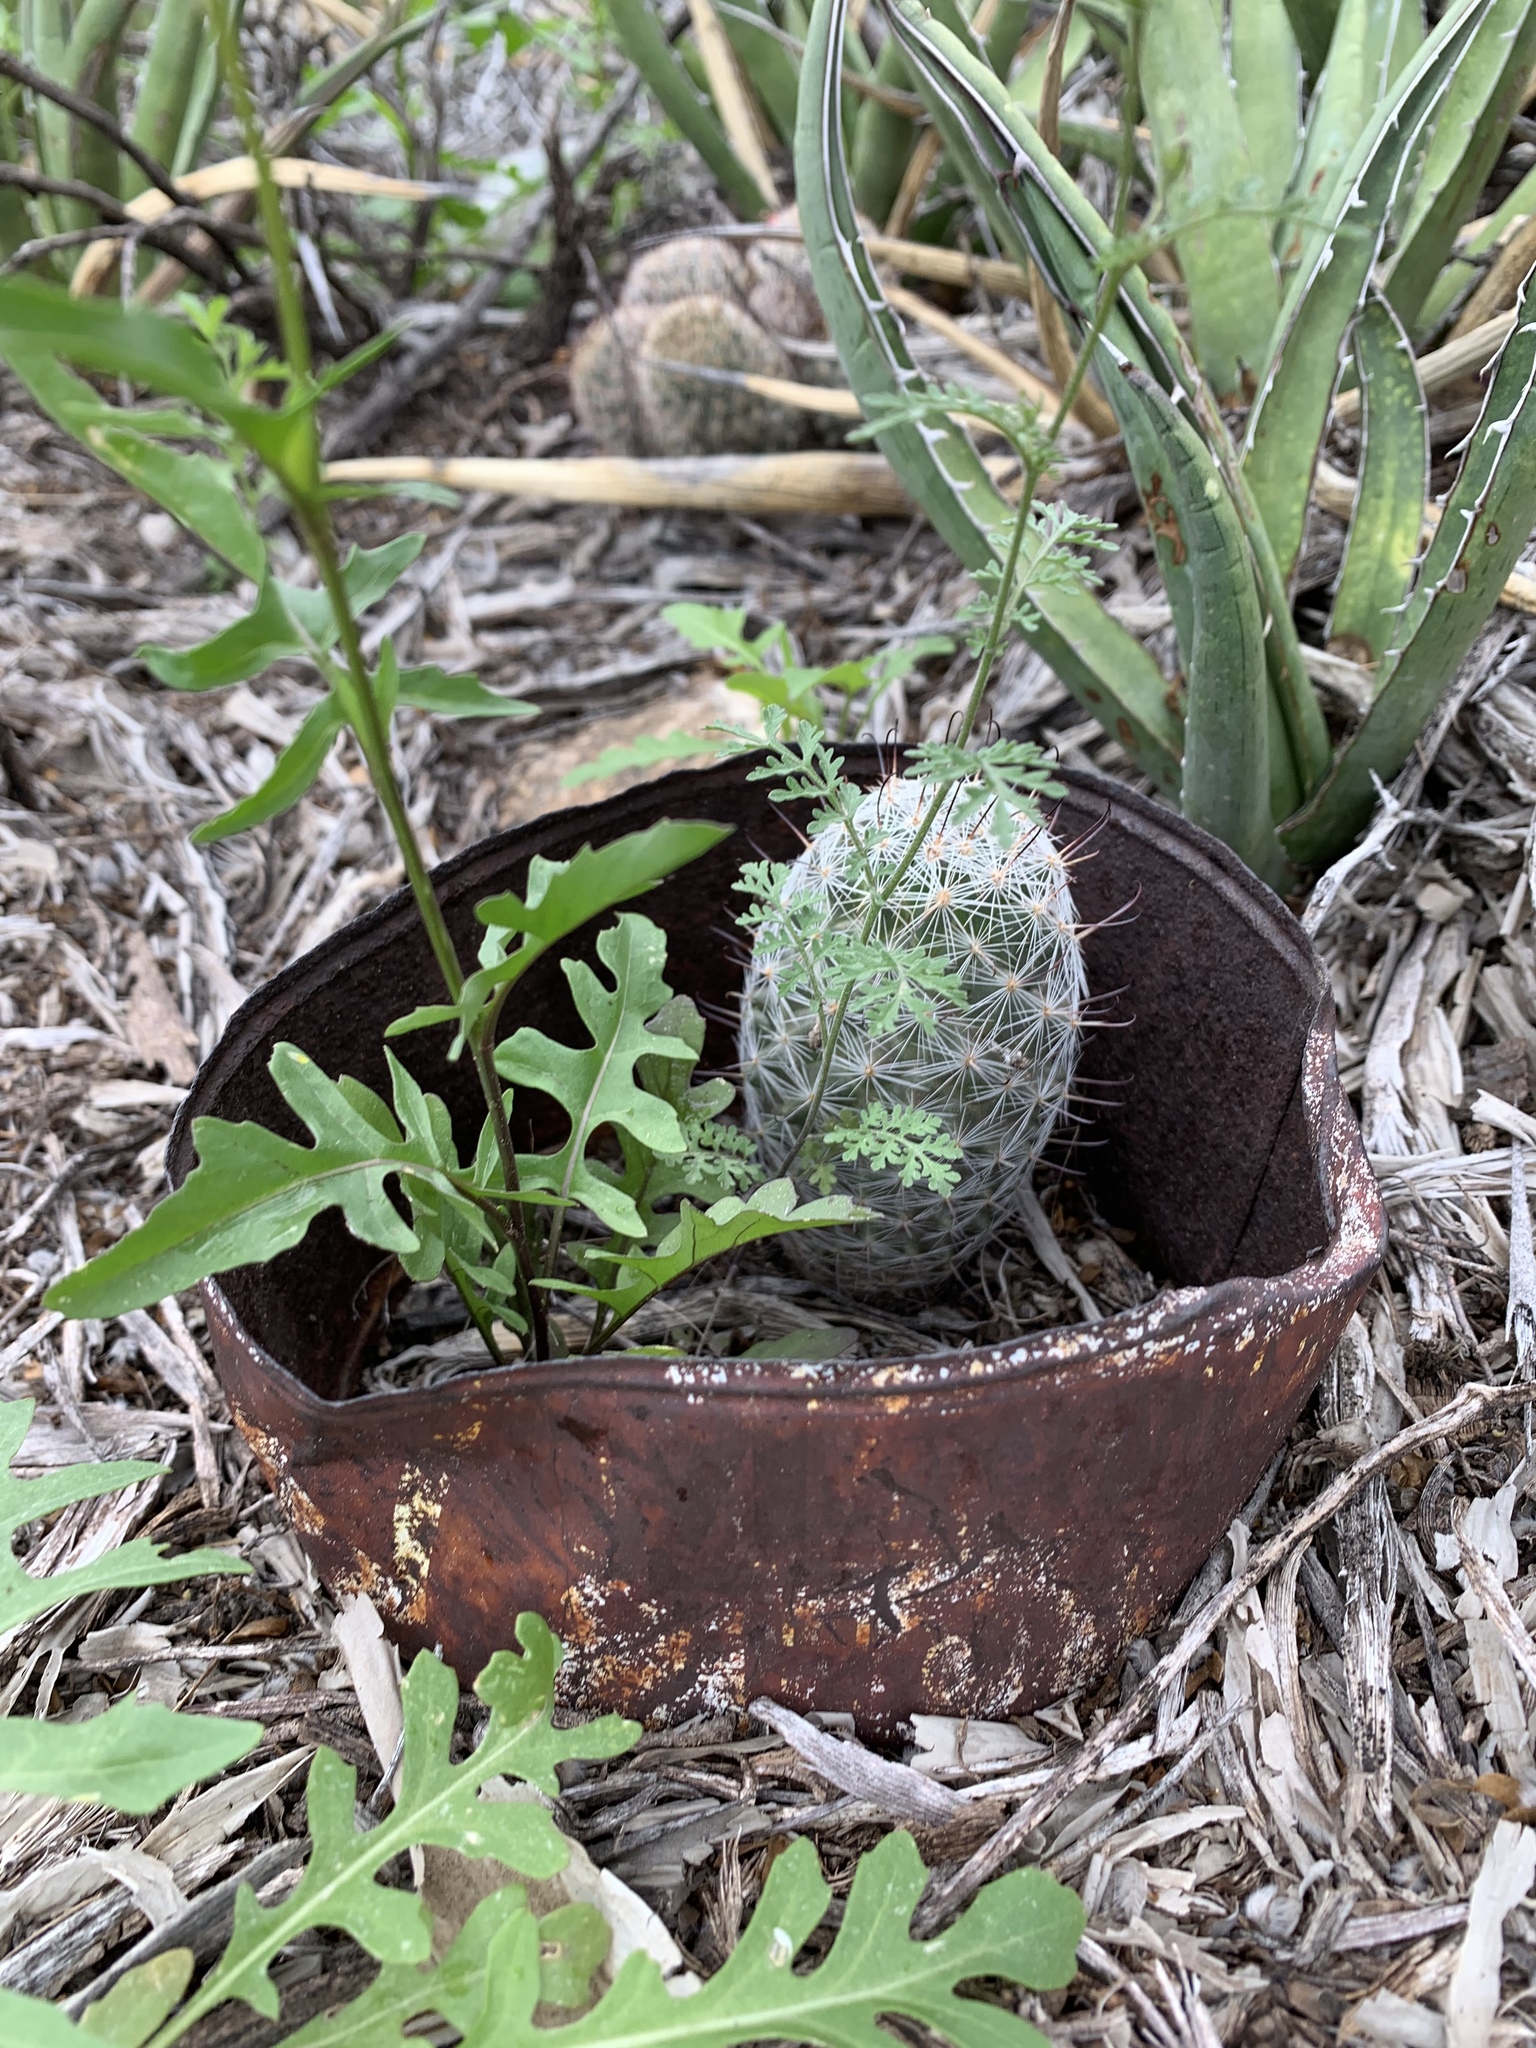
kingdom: Plantae
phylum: Tracheophyta
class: Magnoliopsida
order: Caryophyllales
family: Cactaceae
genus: Cochemiea
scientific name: Cochemiea grahamii
